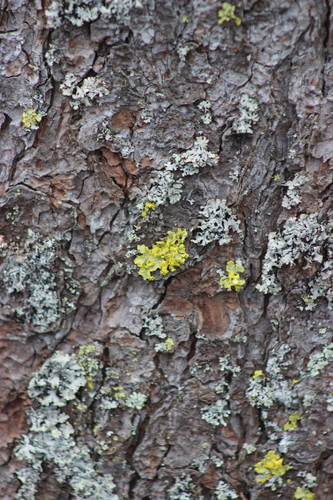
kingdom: Fungi
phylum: Ascomycota
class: Lecanoromycetes
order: Lecanorales
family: Parmeliaceae
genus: Vulpicida
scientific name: Vulpicida pinastri
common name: Powdered sunshine lichen
